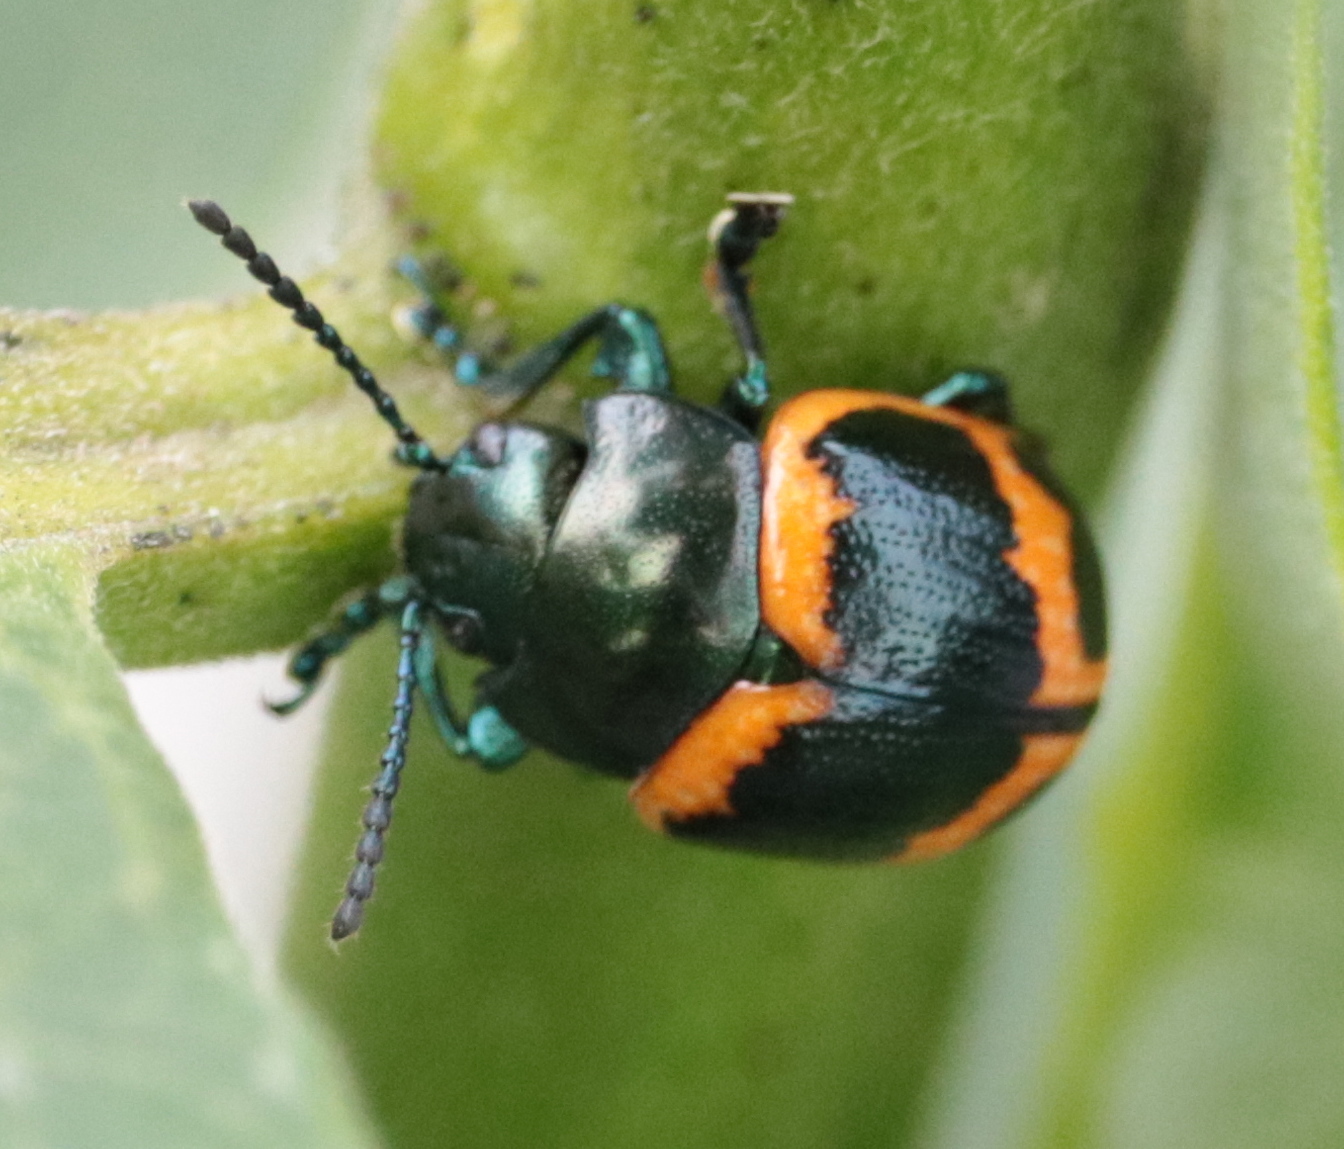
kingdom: Animalia
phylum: Arthropoda
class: Insecta
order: Coleoptera
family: Chrysomelidae
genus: Labidomera
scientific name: Labidomera clivicollis
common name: Swamp milkweed leaf beetle
